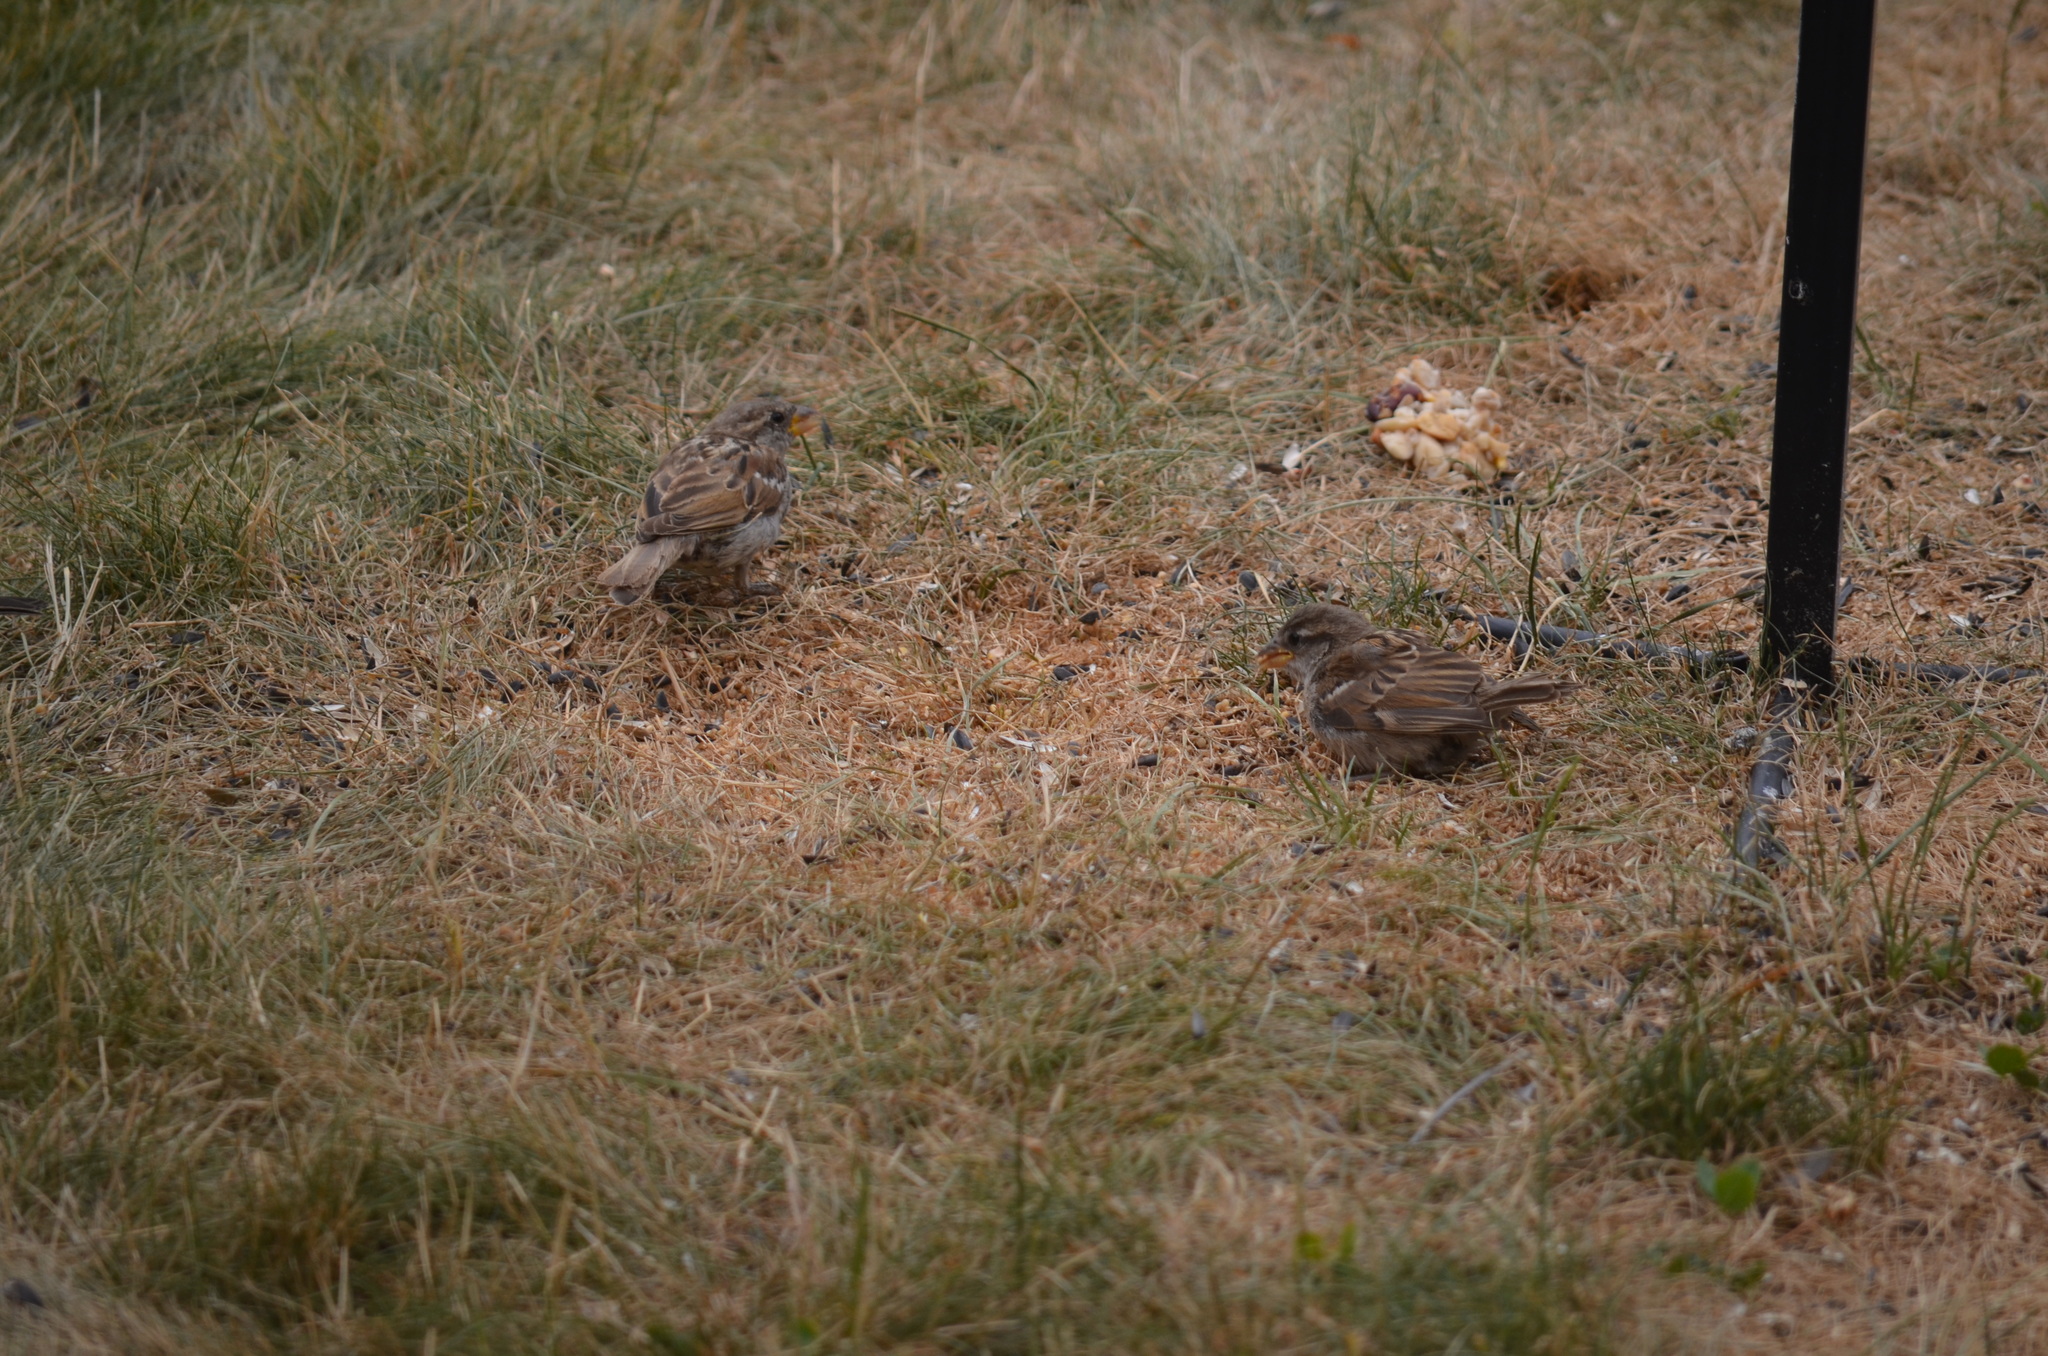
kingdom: Animalia
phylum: Chordata
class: Aves
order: Passeriformes
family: Passeridae
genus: Passer
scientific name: Passer domesticus
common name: House sparrow
